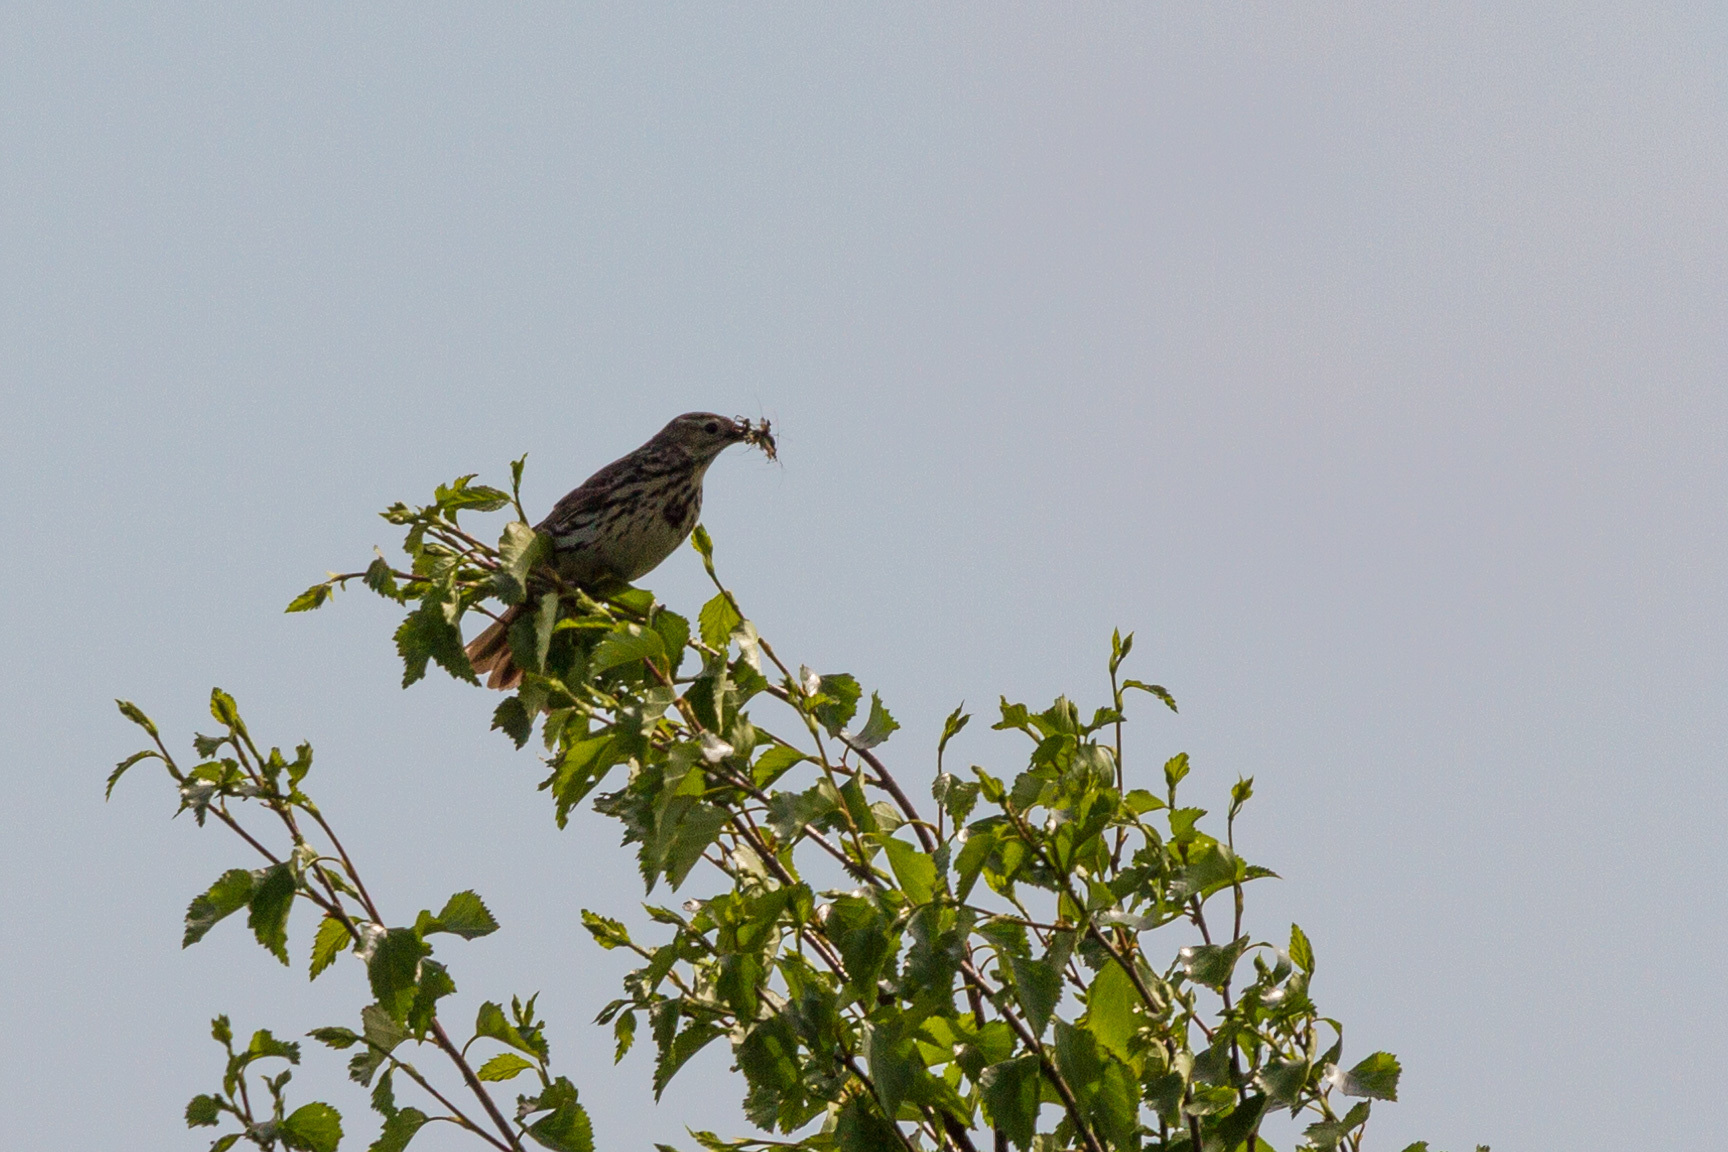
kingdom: Animalia
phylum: Chordata
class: Aves
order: Passeriformes
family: Motacillidae
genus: Anthus
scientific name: Anthus trivialis
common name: Tree pipit
